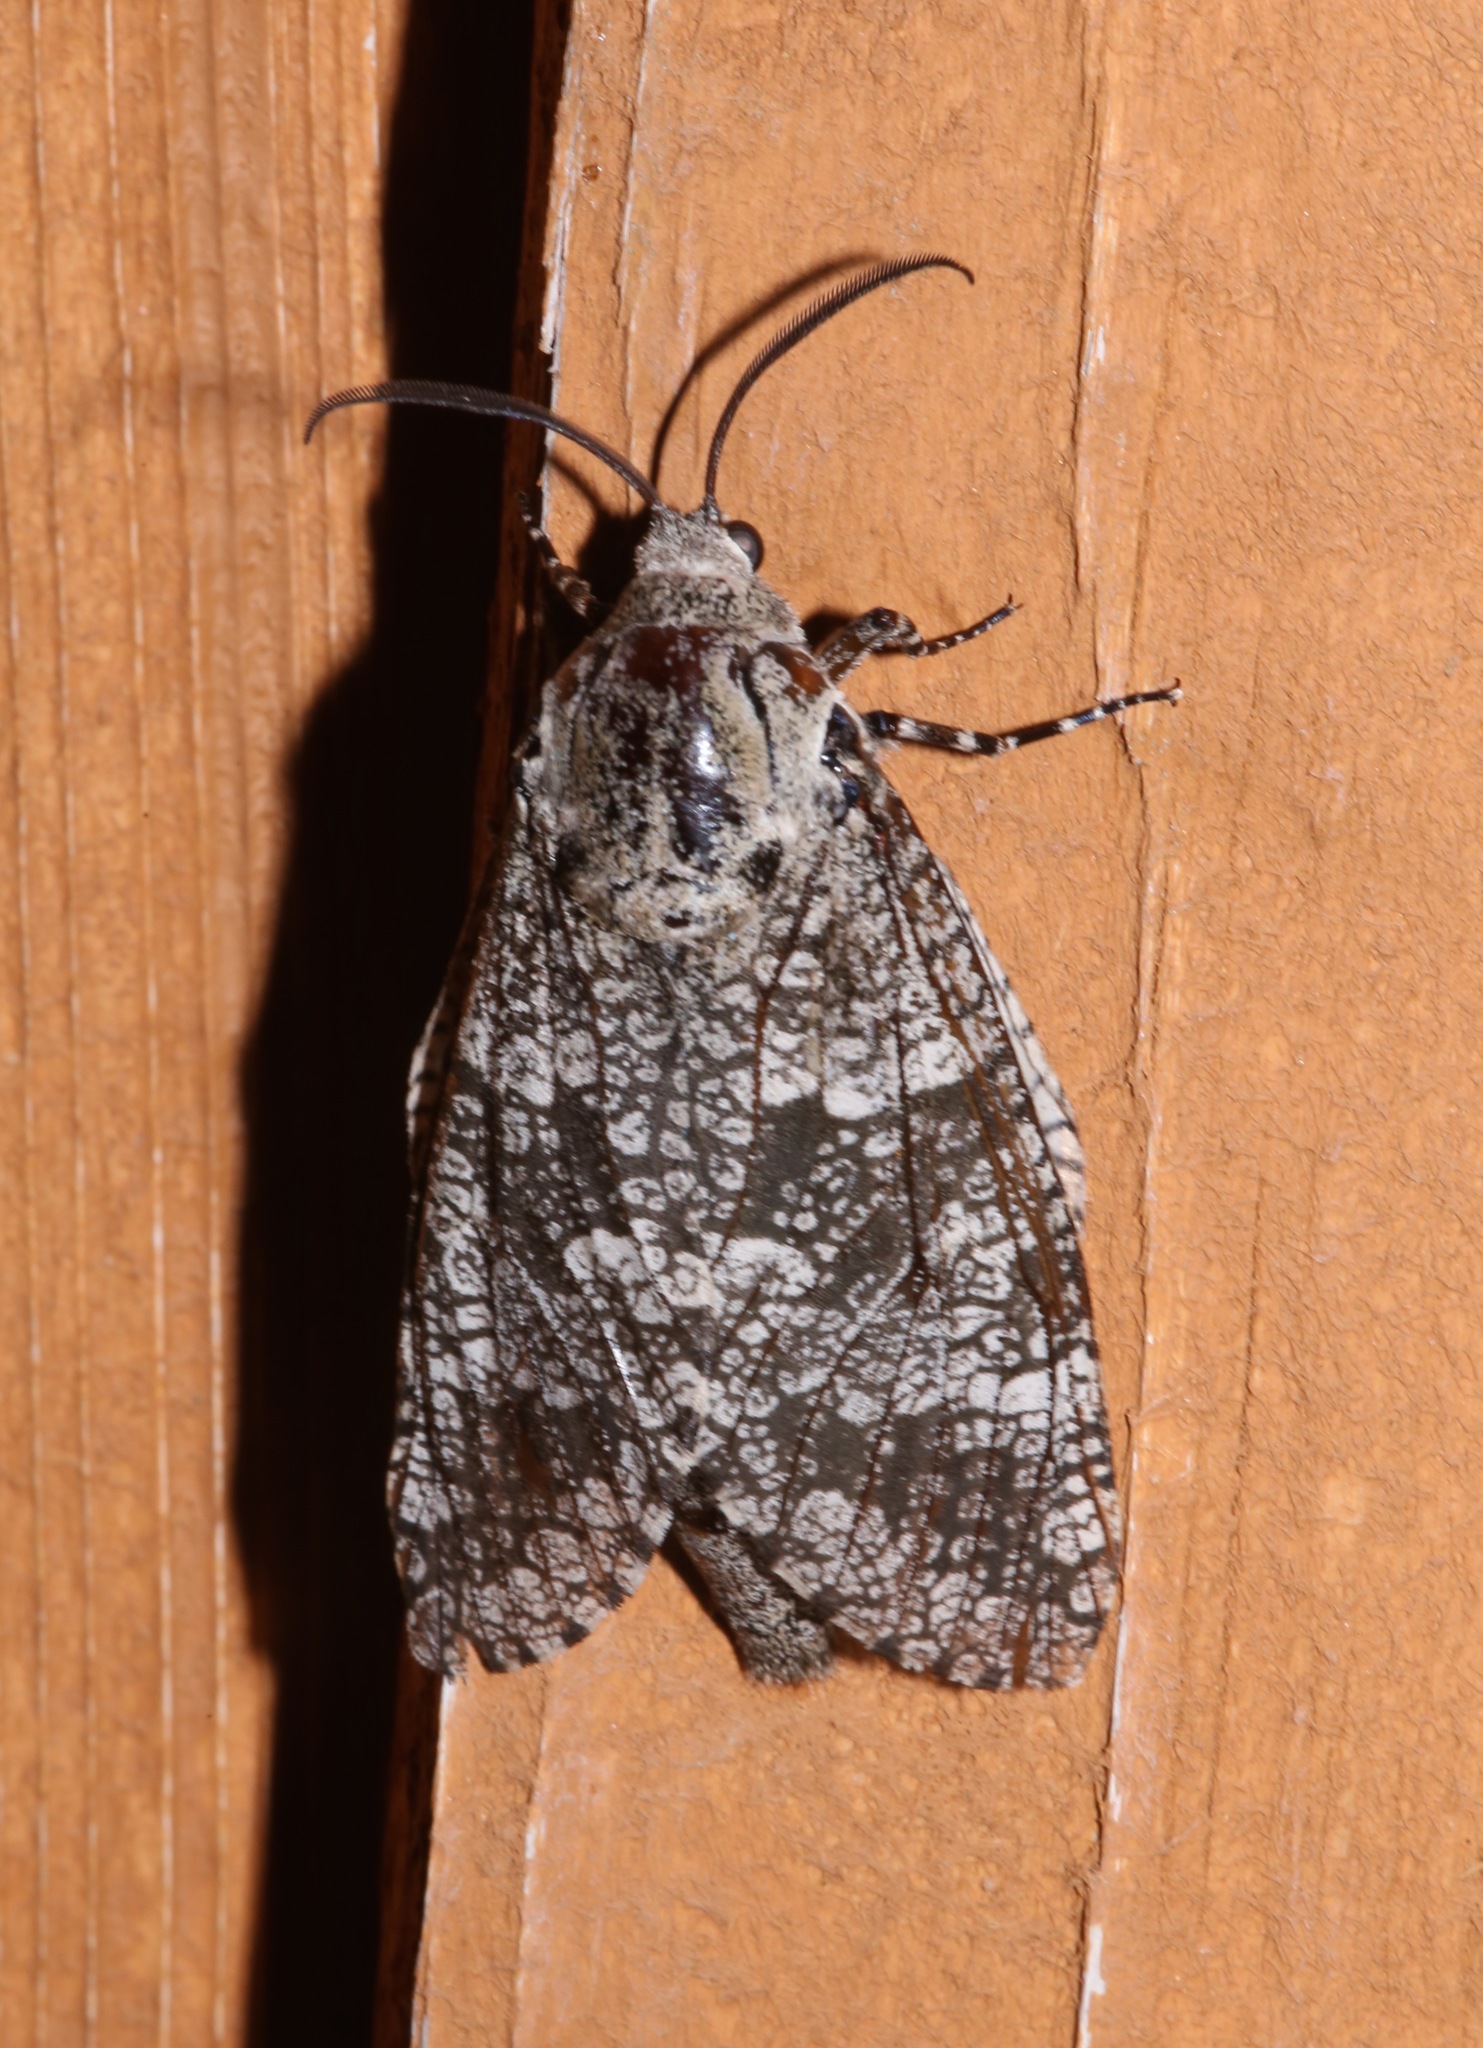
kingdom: Animalia
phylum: Arthropoda
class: Insecta
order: Lepidoptera
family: Cossidae
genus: Prionoxystus
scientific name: Prionoxystus robiniae
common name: Carpenterworm
